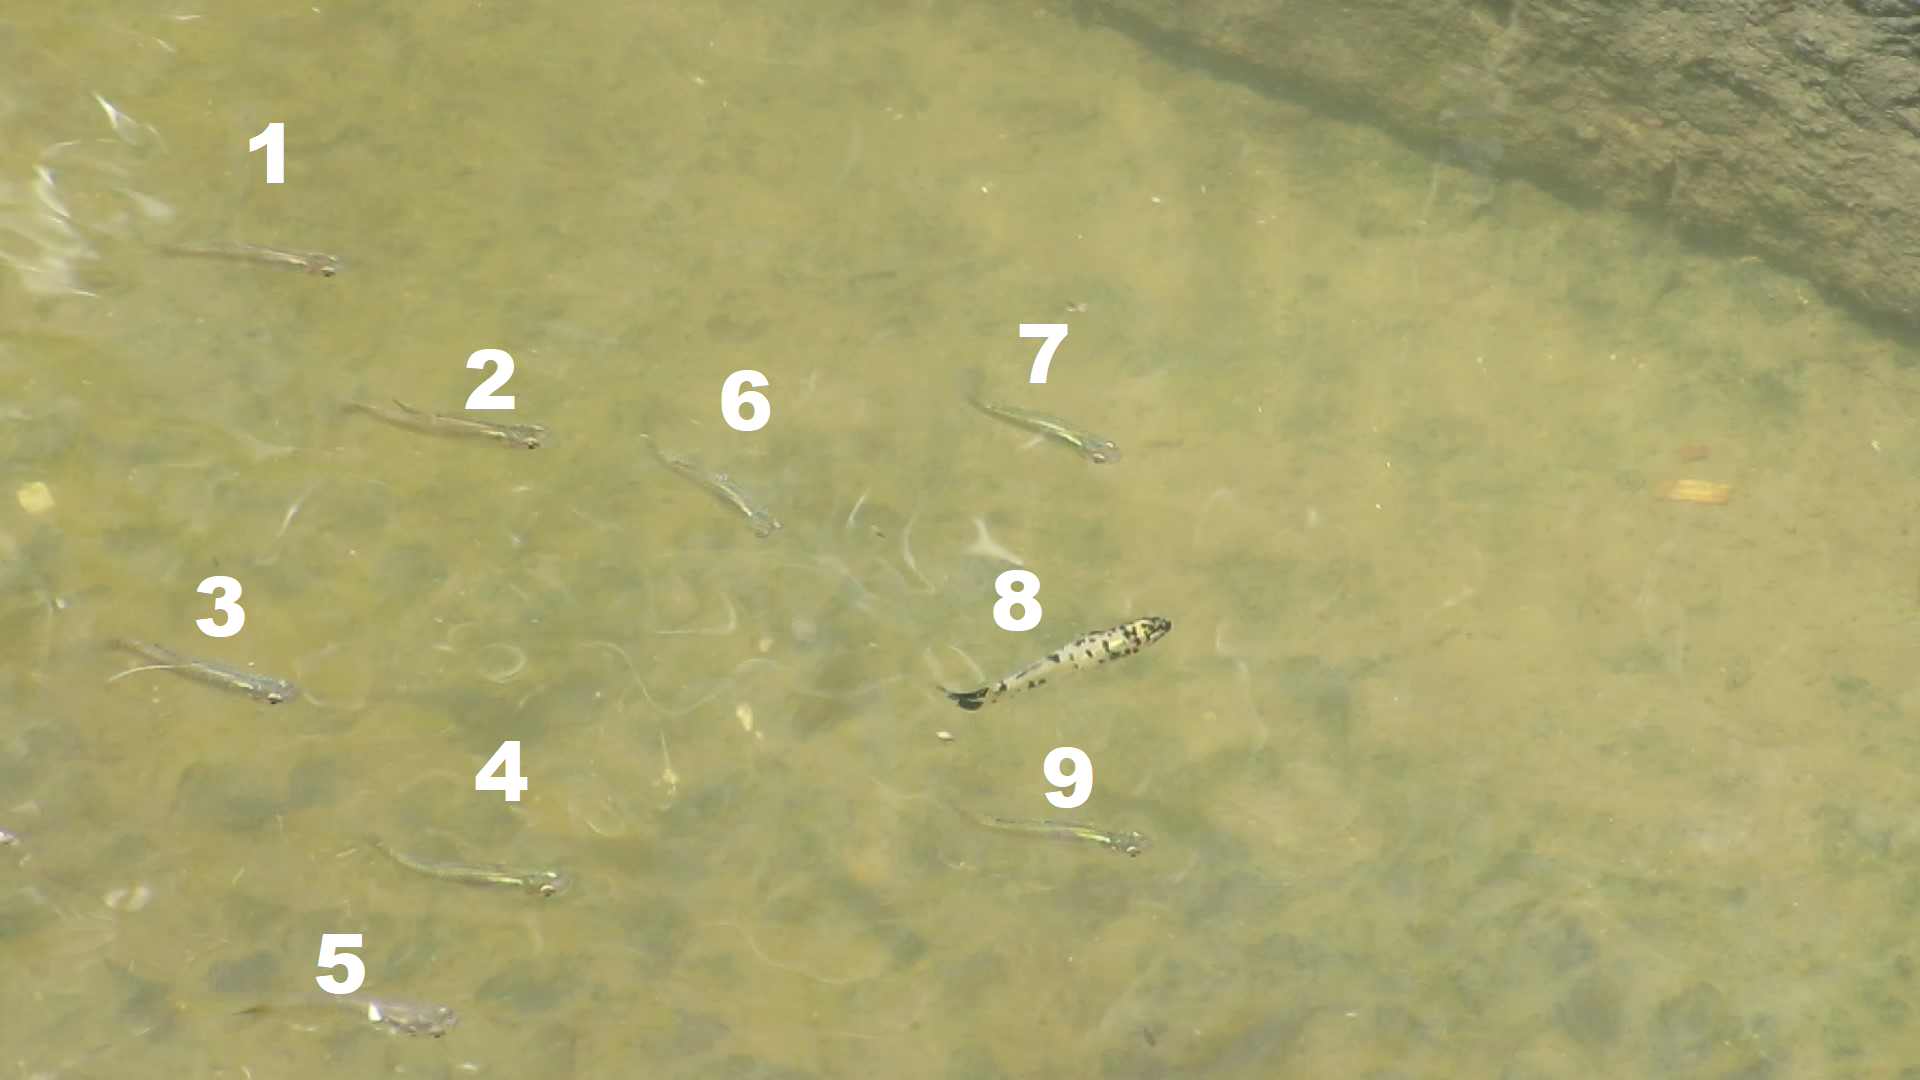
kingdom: Animalia
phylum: Chordata
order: Cyprinodontiformes
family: Poeciliidae
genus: Gambusia
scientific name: Gambusia holbrooki
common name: Eastern mosquitofish
